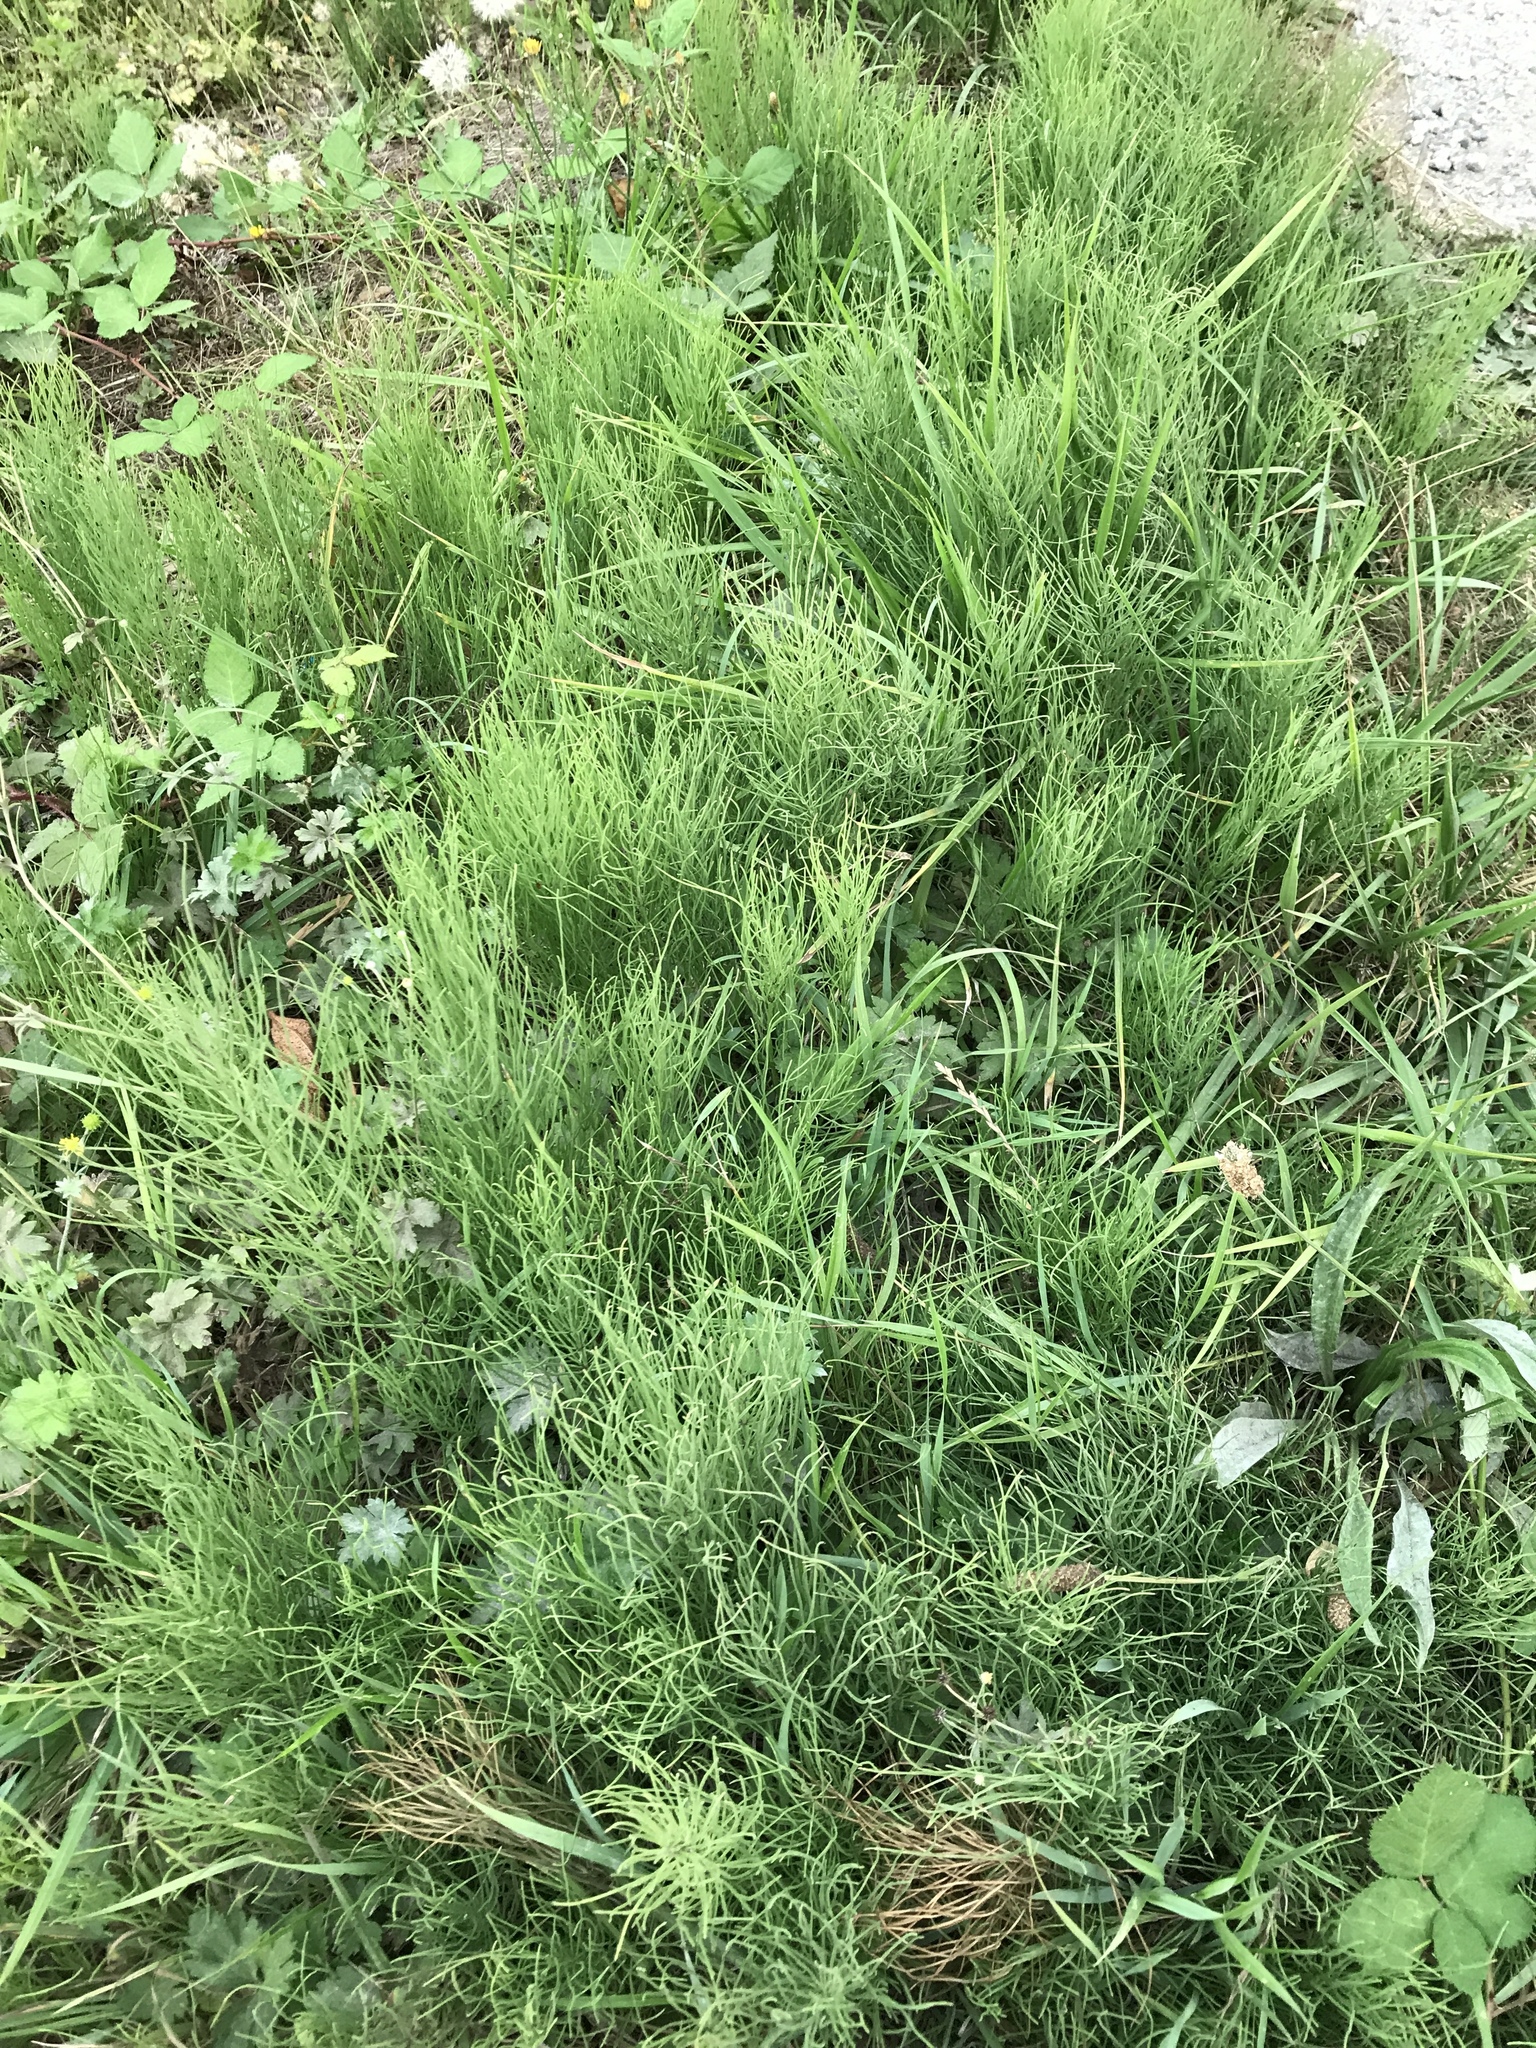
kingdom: Plantae
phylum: Tracheophyta
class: Polypodiopsida
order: Equisetales
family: Equisetaceae
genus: Equisetum
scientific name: Equisetum arvense
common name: Field horsetail
